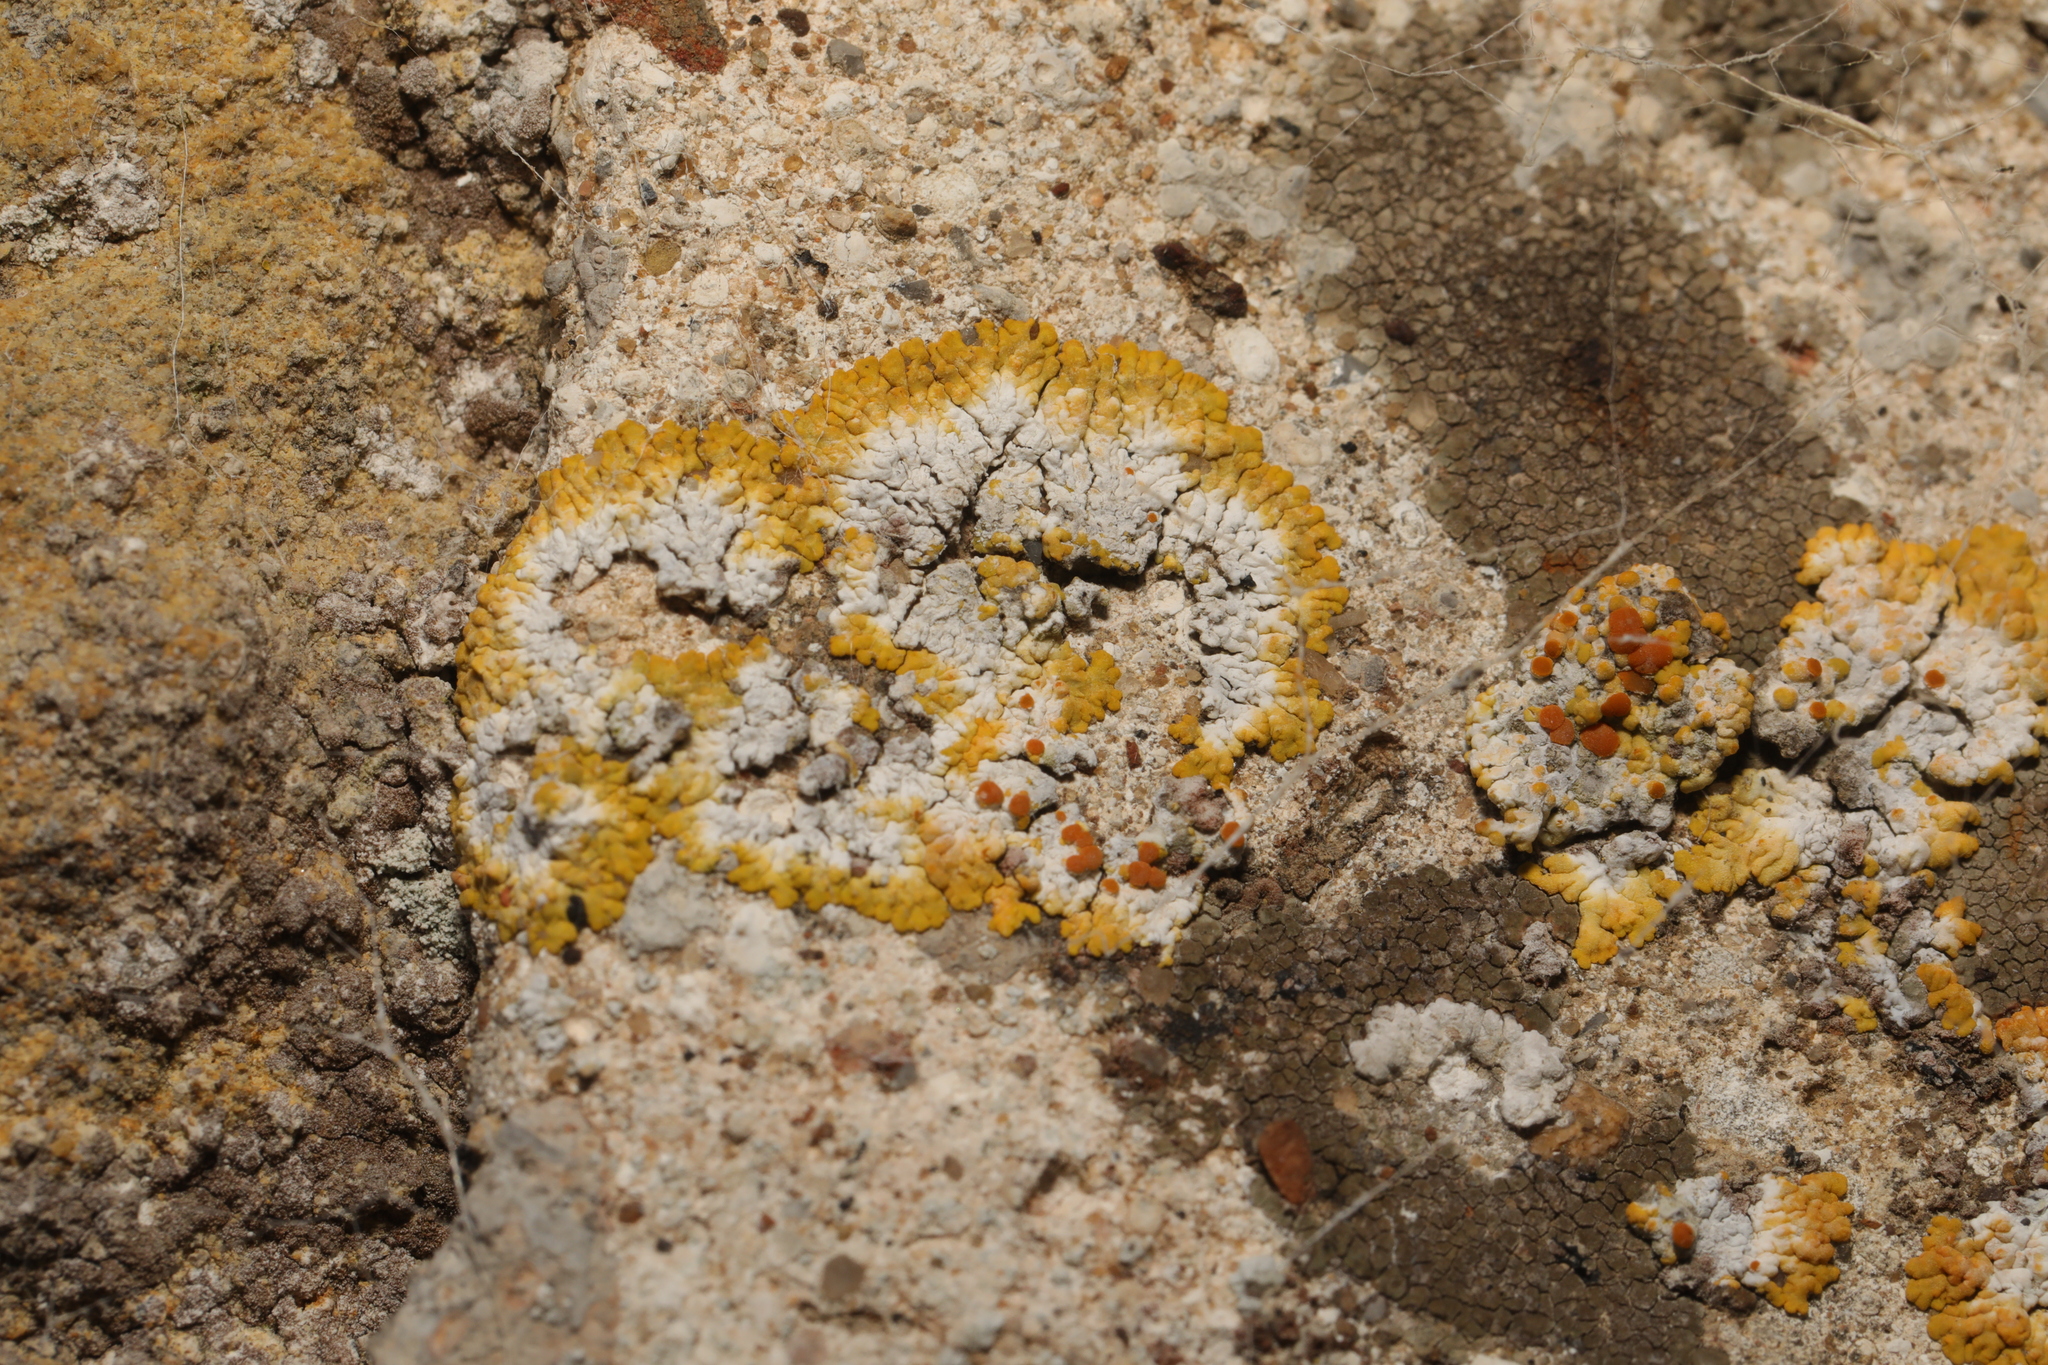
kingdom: Fungi
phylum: Ascomycota
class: Lecanoromycetes
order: Teloschistales
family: Teloschistaceae
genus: Variospora
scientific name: Variospora flavescens
